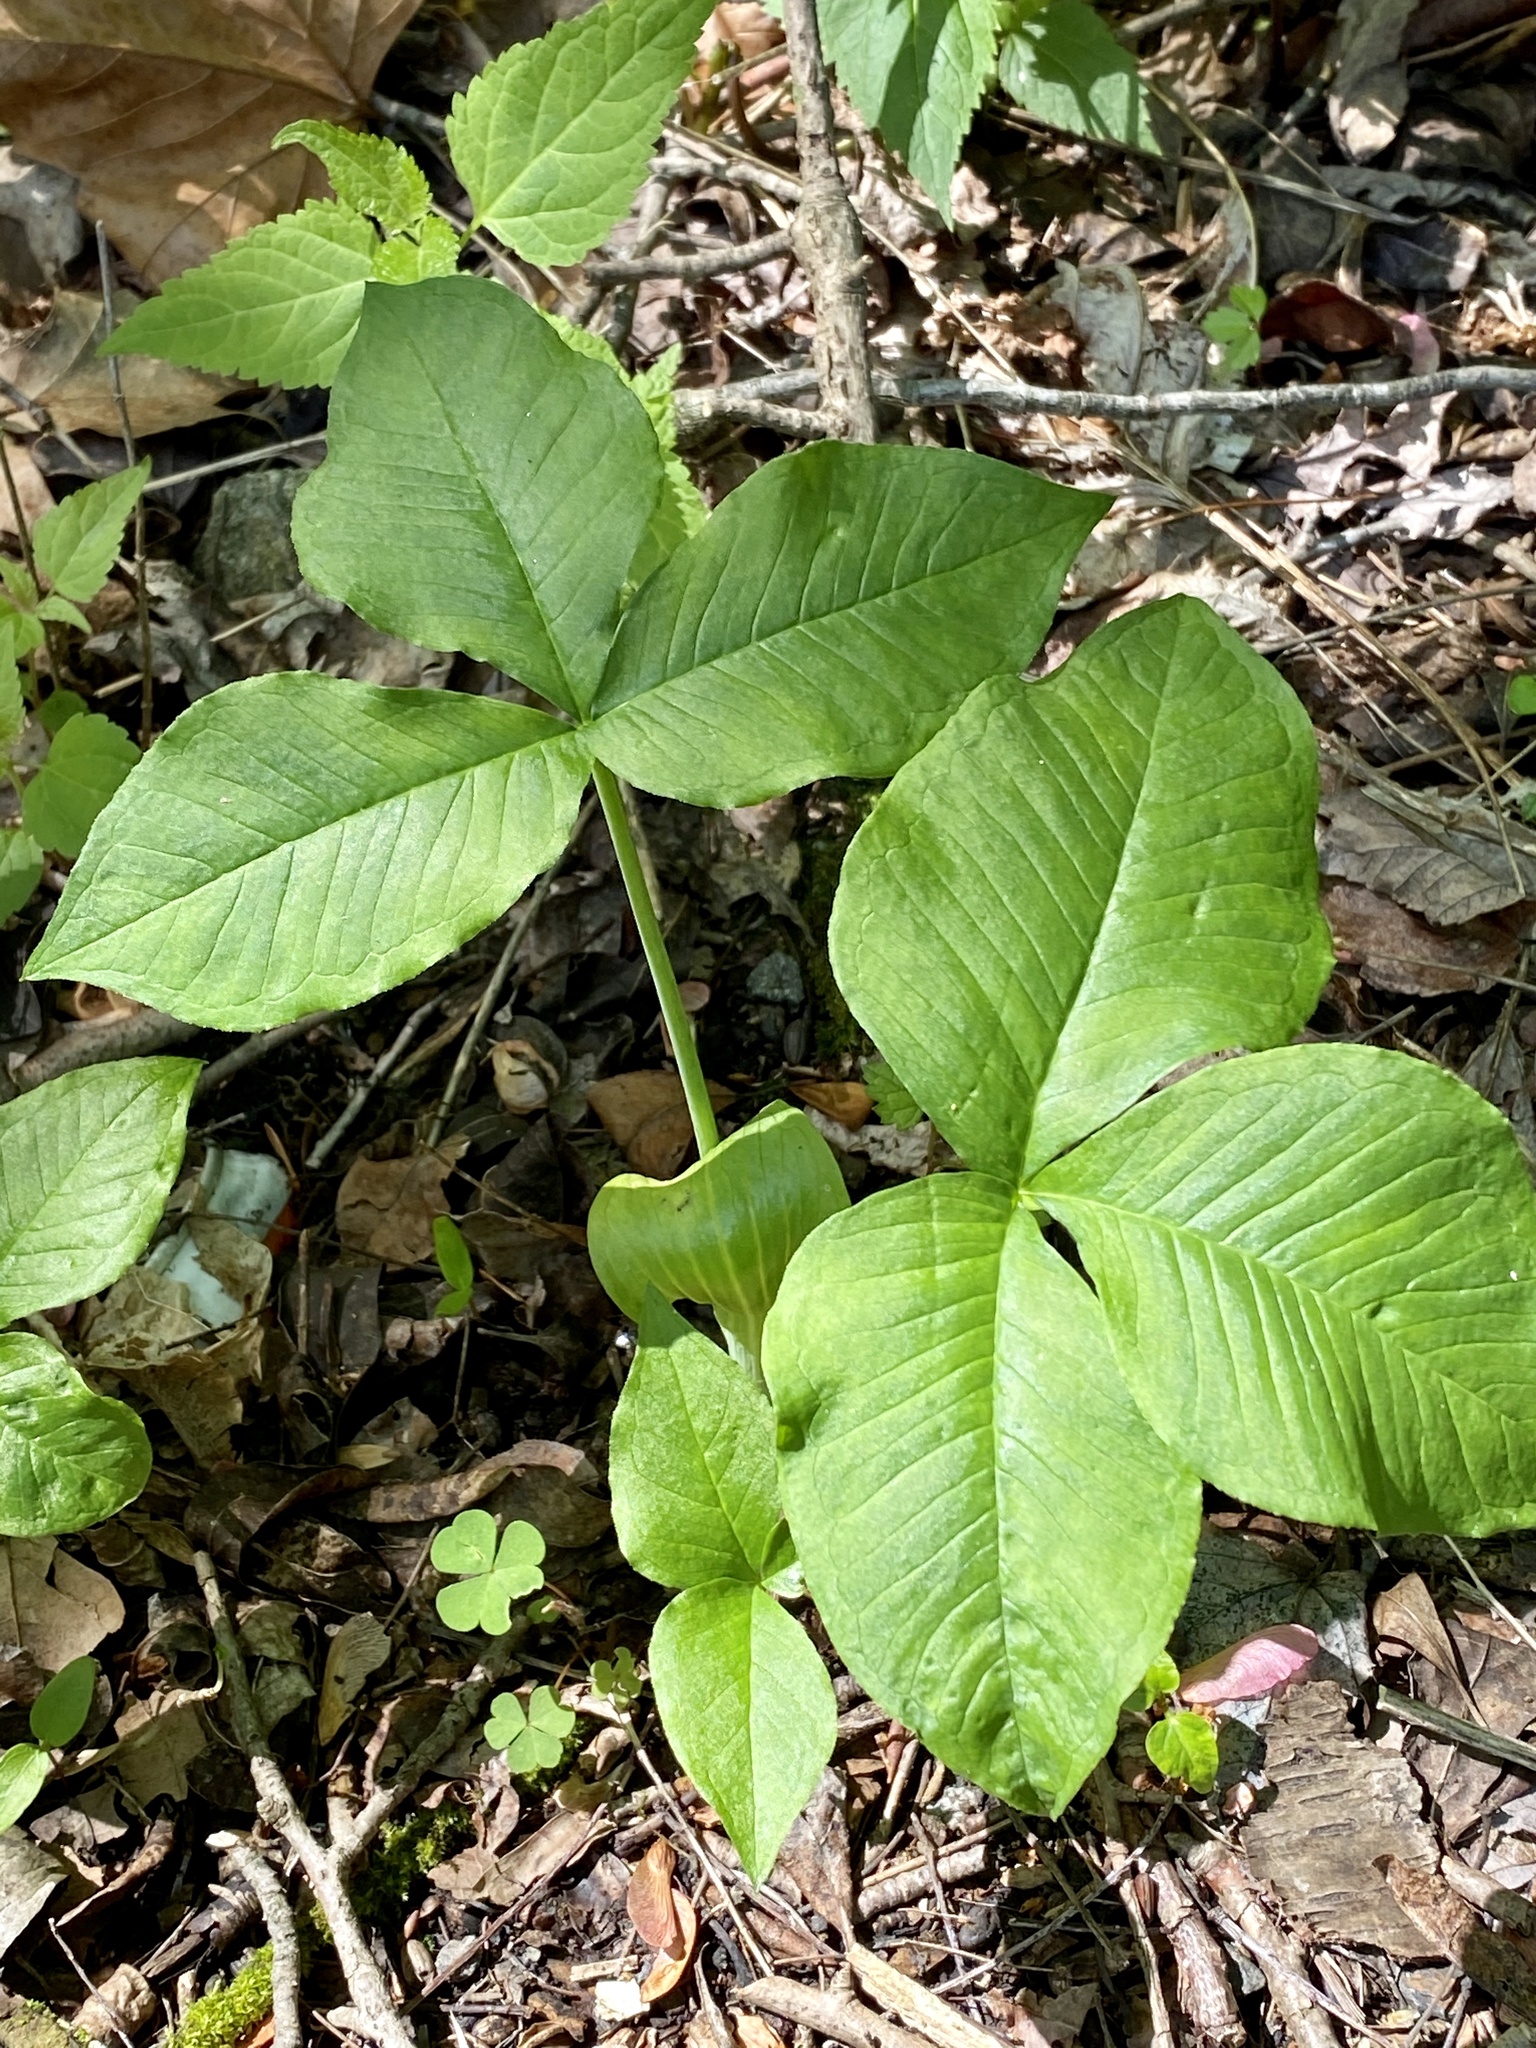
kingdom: Plantae
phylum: Tracheophyta
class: Liliopsida
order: Alismatales
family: Araceae
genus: Arisaema
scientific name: Arisaema triphyllum
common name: Jack-in-the-pulpit
